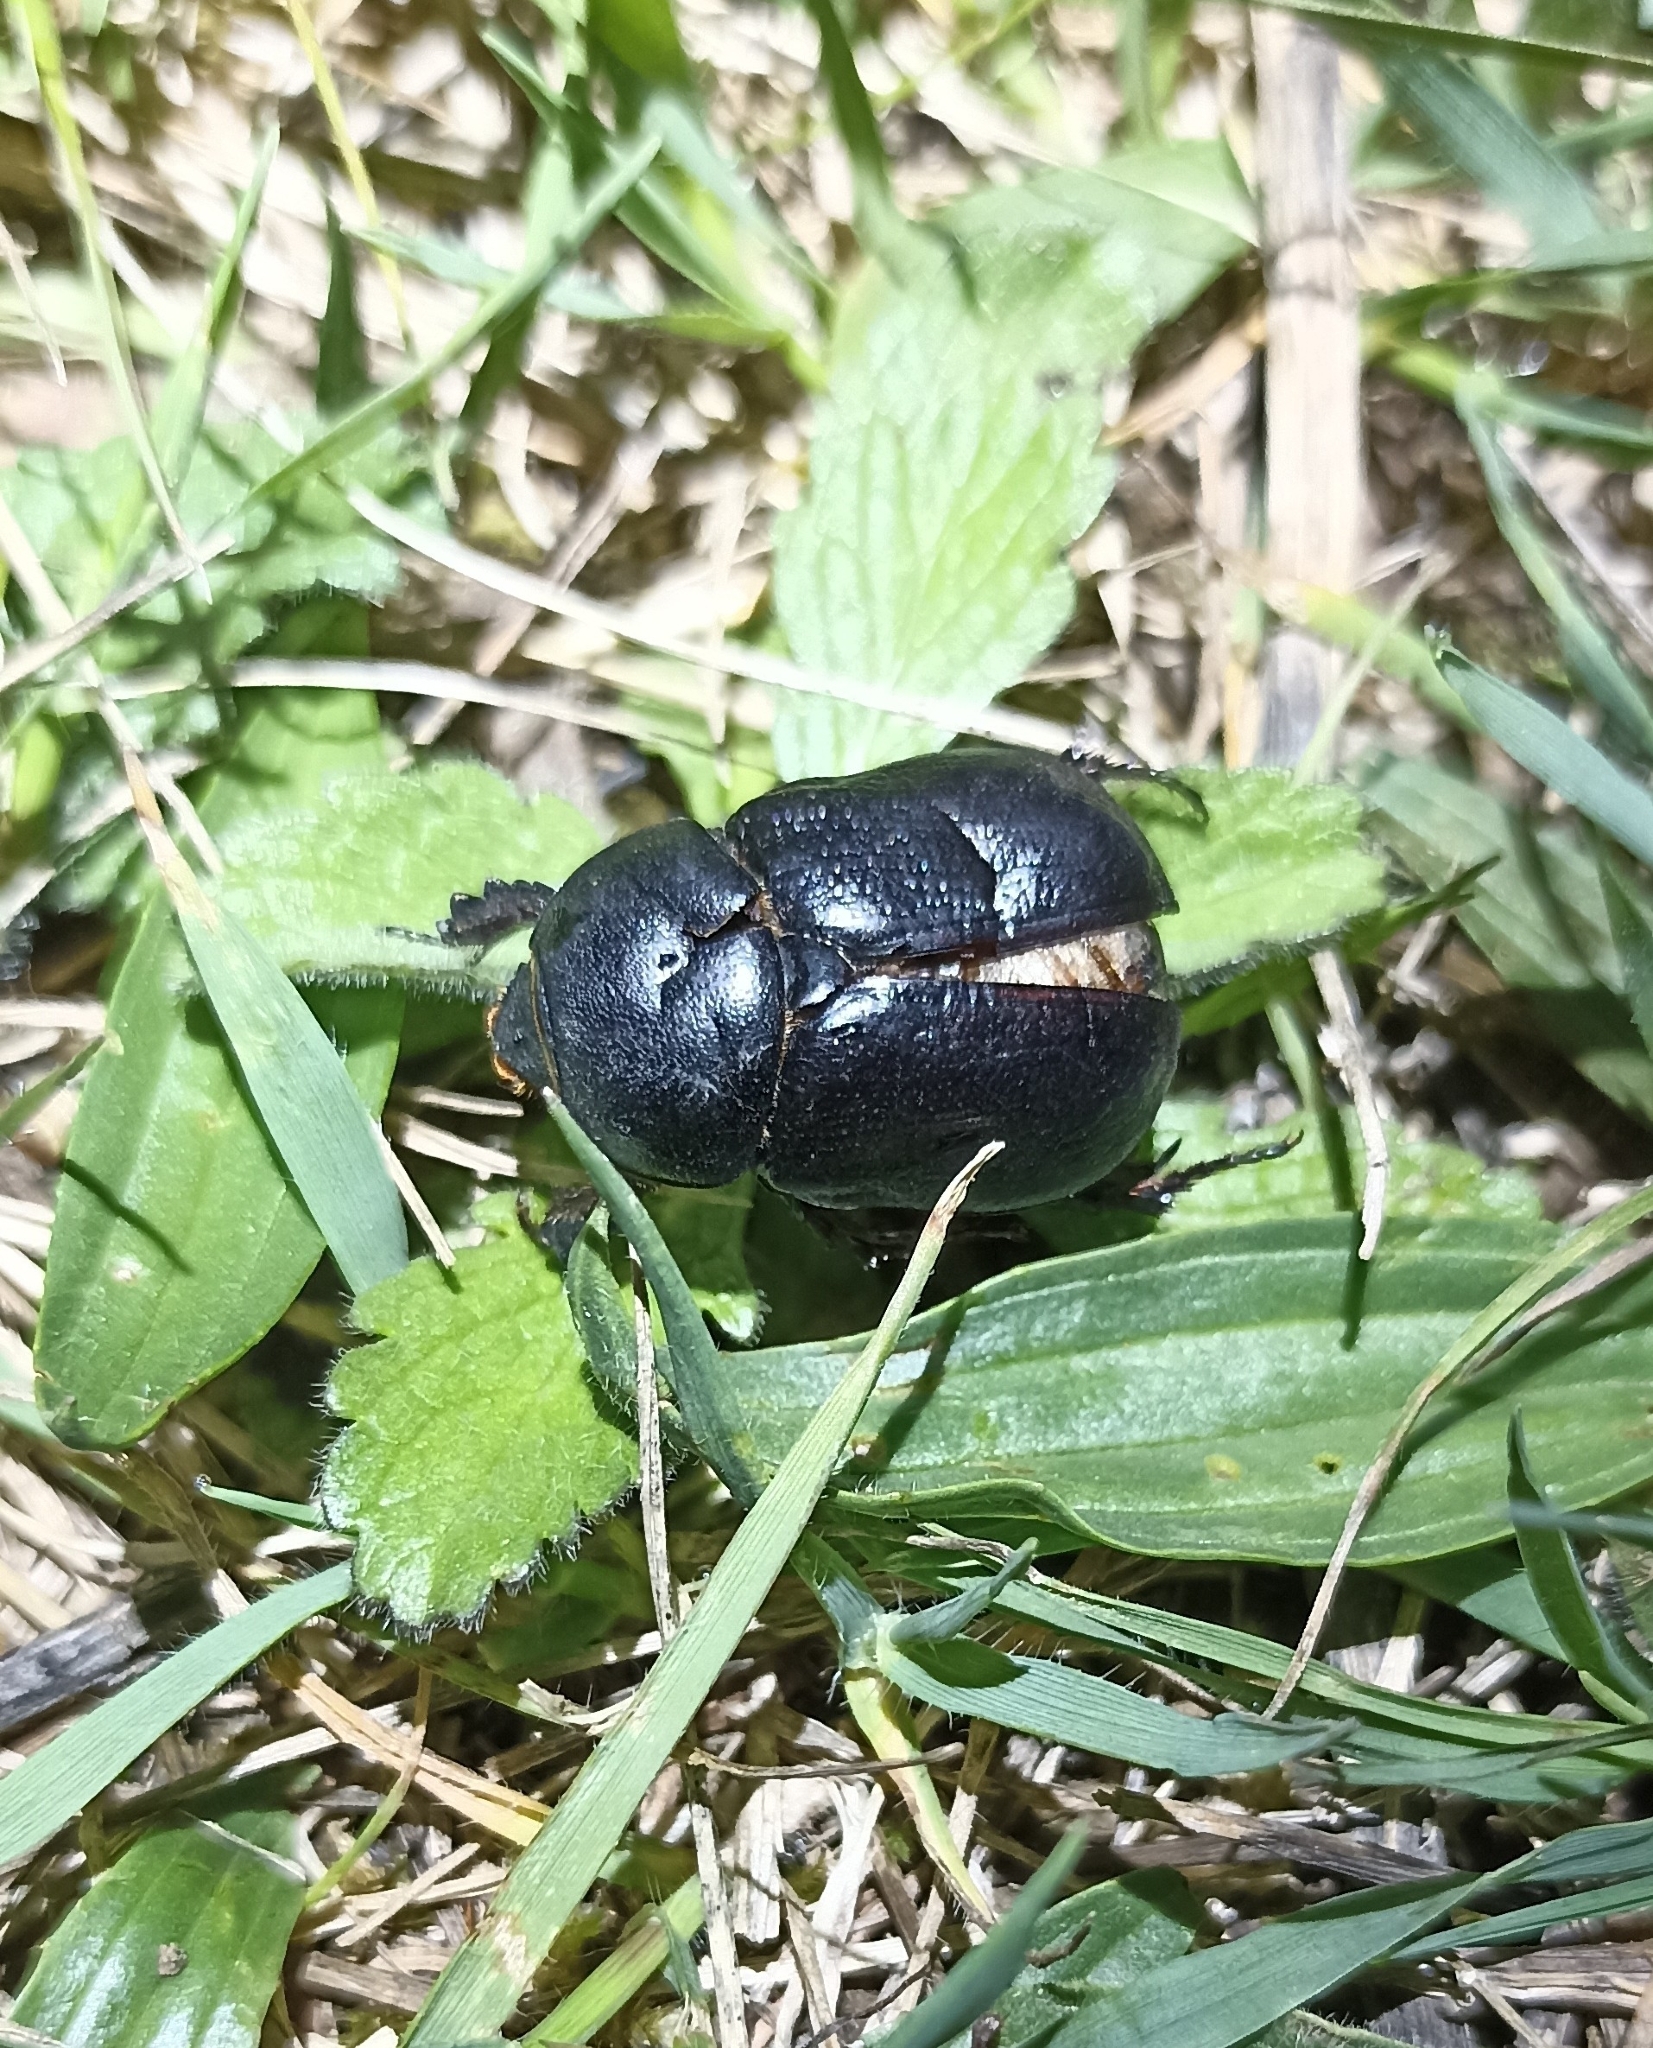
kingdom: Animalia
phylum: Arthropoda
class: Insecta
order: Coleoptera
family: Scarabaeidae
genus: Pentodon
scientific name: Pentodon bidens
